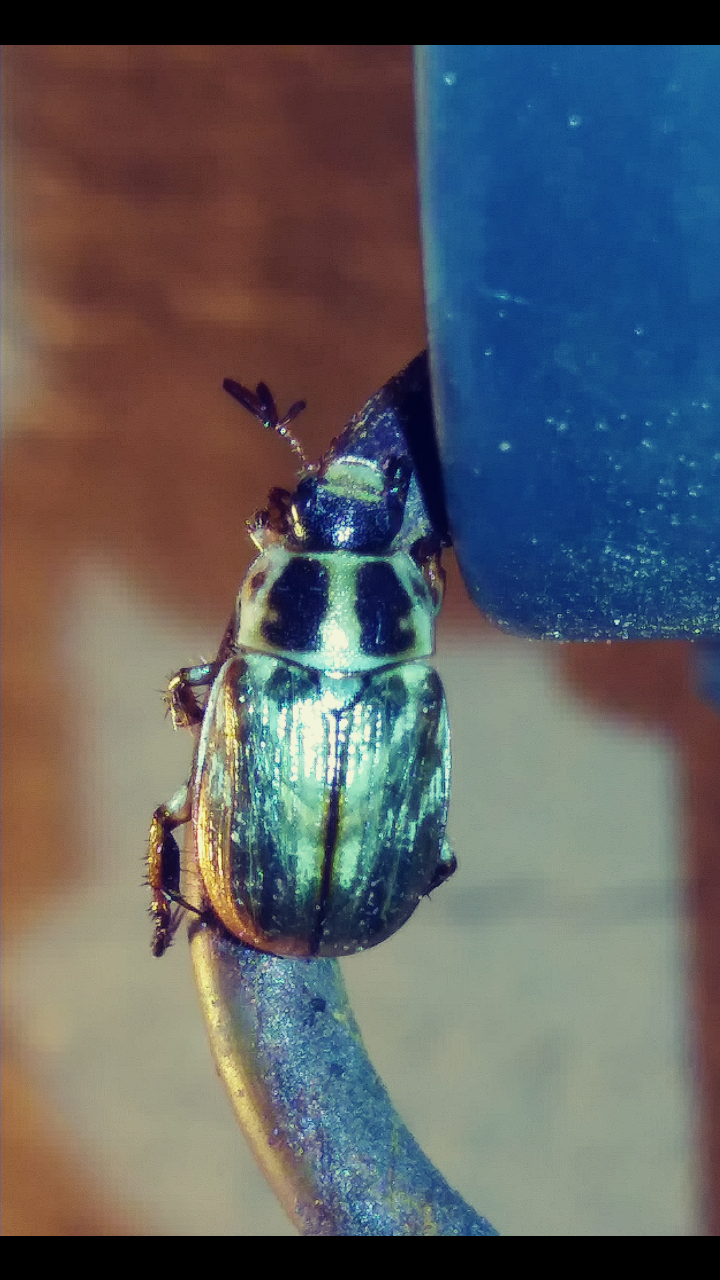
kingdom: Animalia
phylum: Arthropoda
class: Insecta
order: Coleoptera
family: Scarabaeidae
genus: Exomala
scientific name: Exomala orientalis
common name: Oriental beetle
